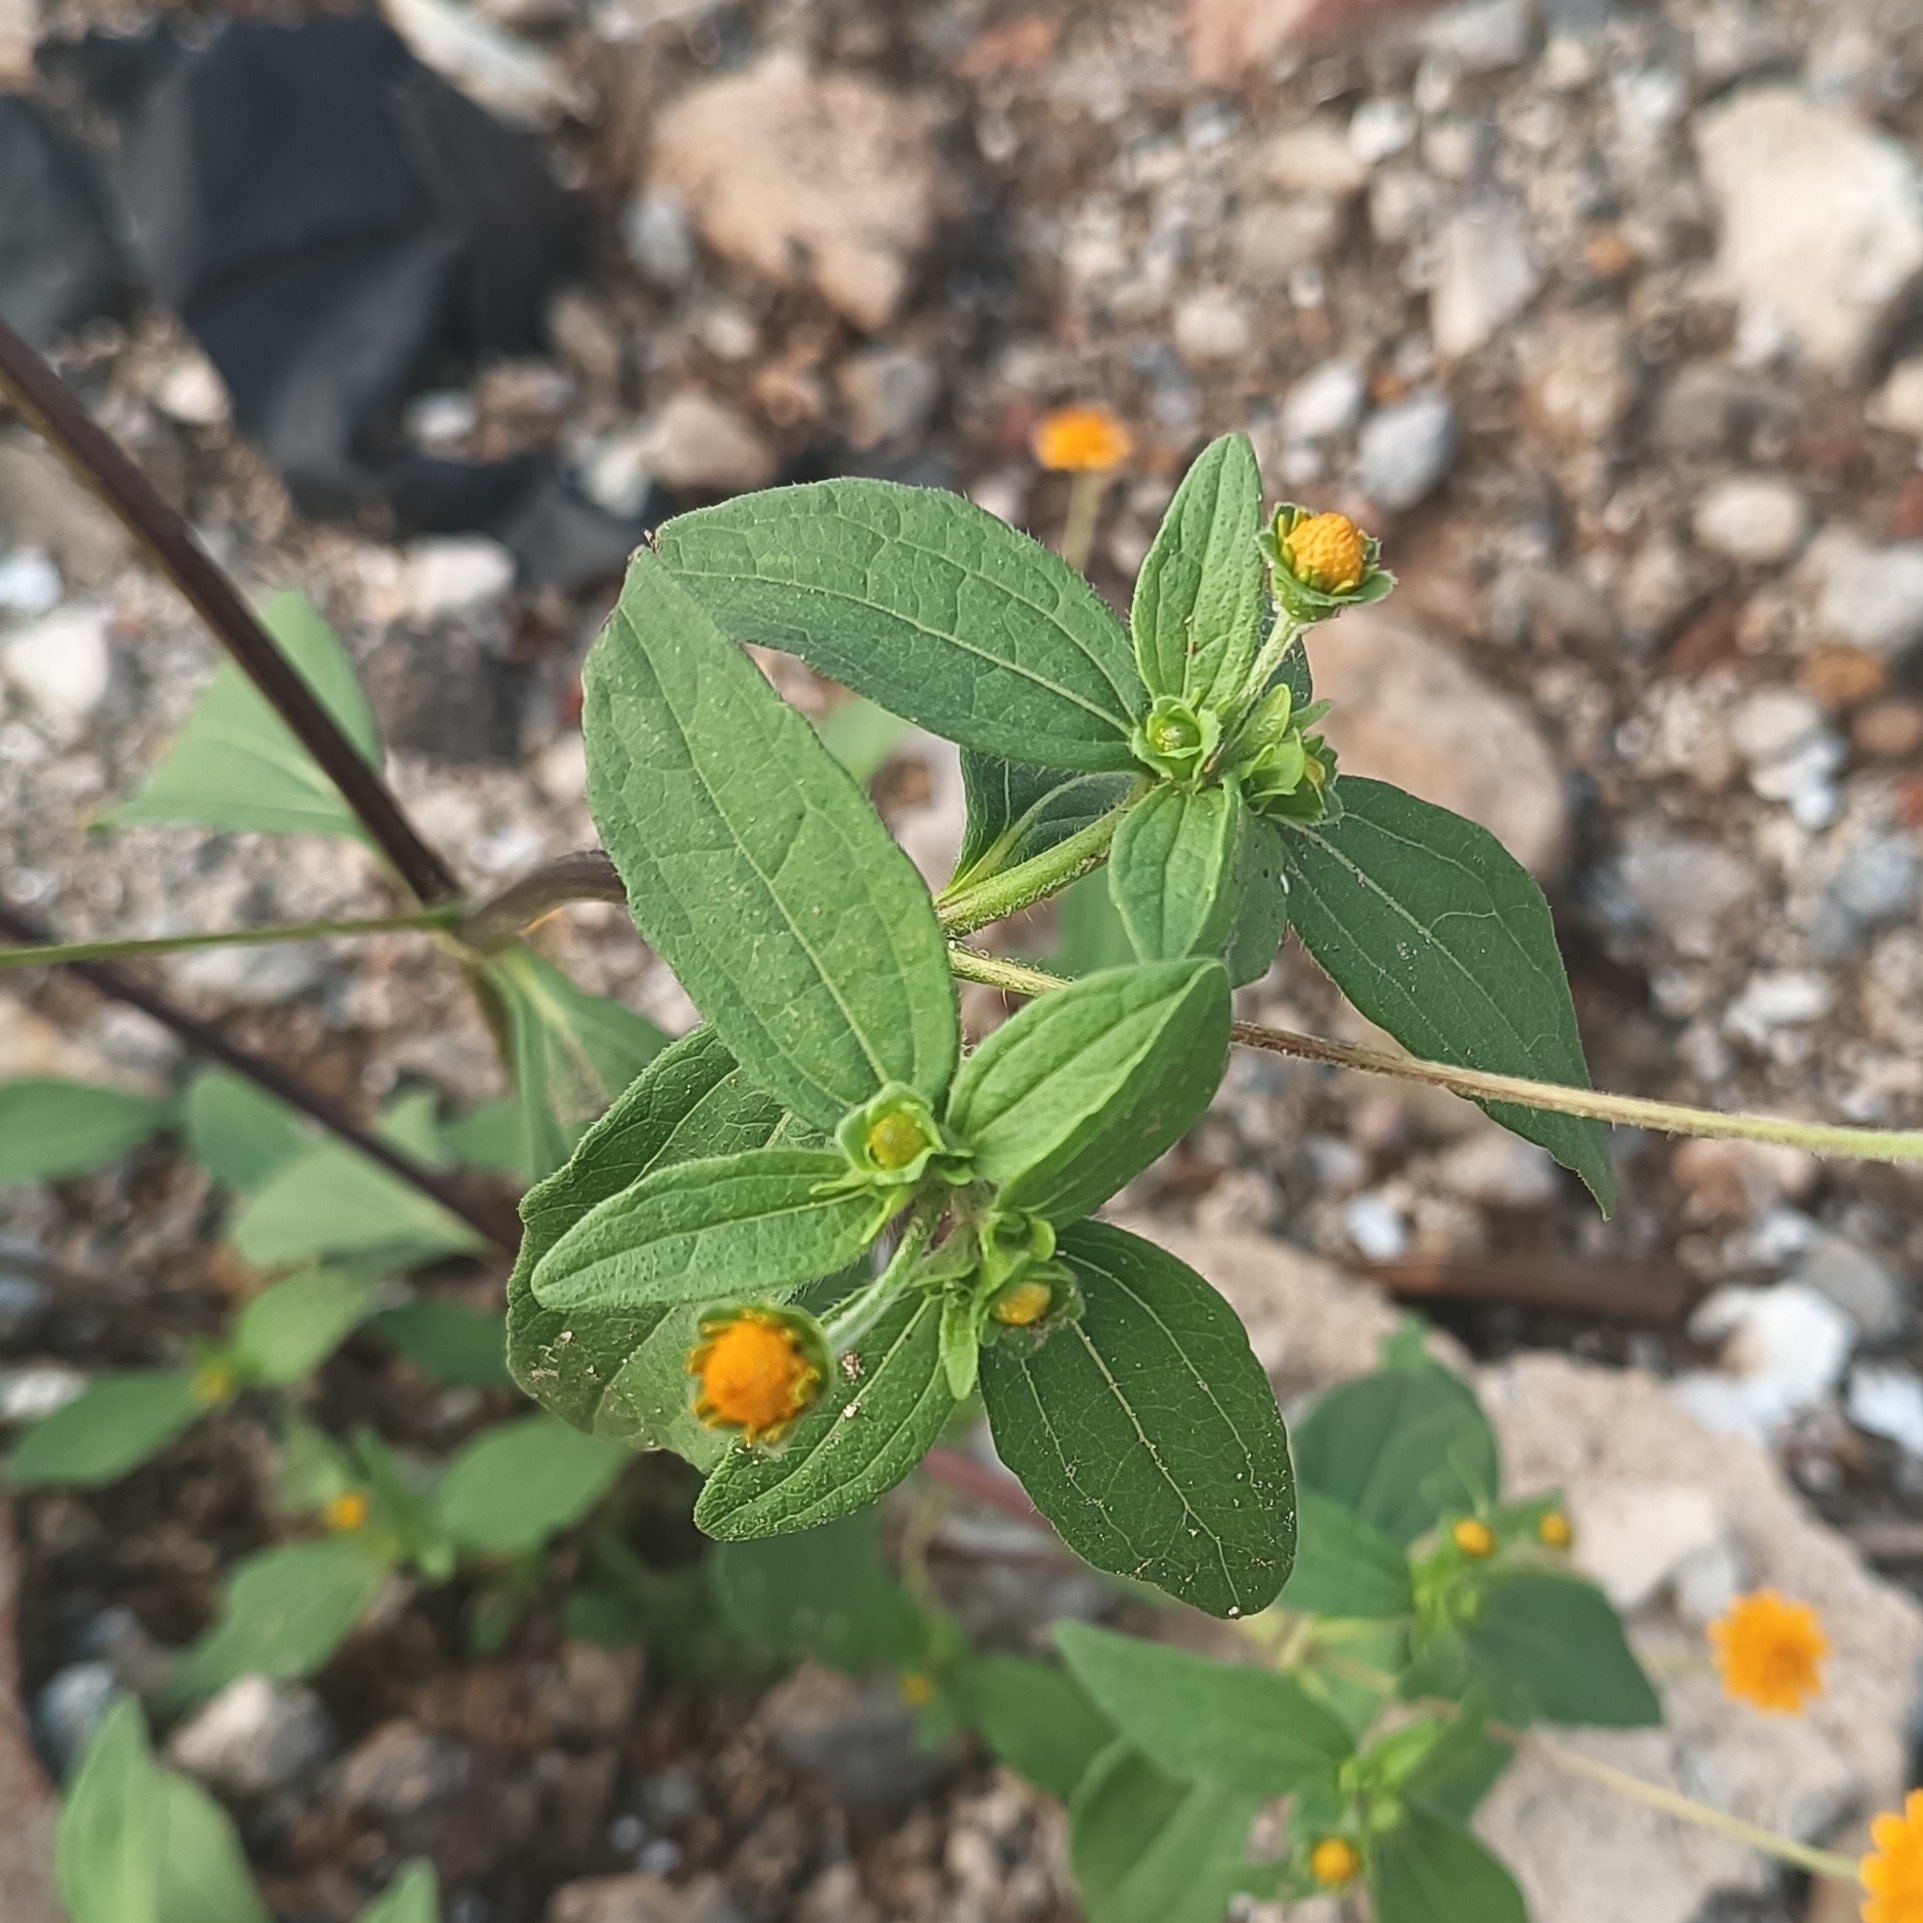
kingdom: Plantae
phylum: Tracheophyta
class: Magnoliopsida
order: Asterales
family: Asteraceae
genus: Melampodium
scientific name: Melampodium divaricatum
